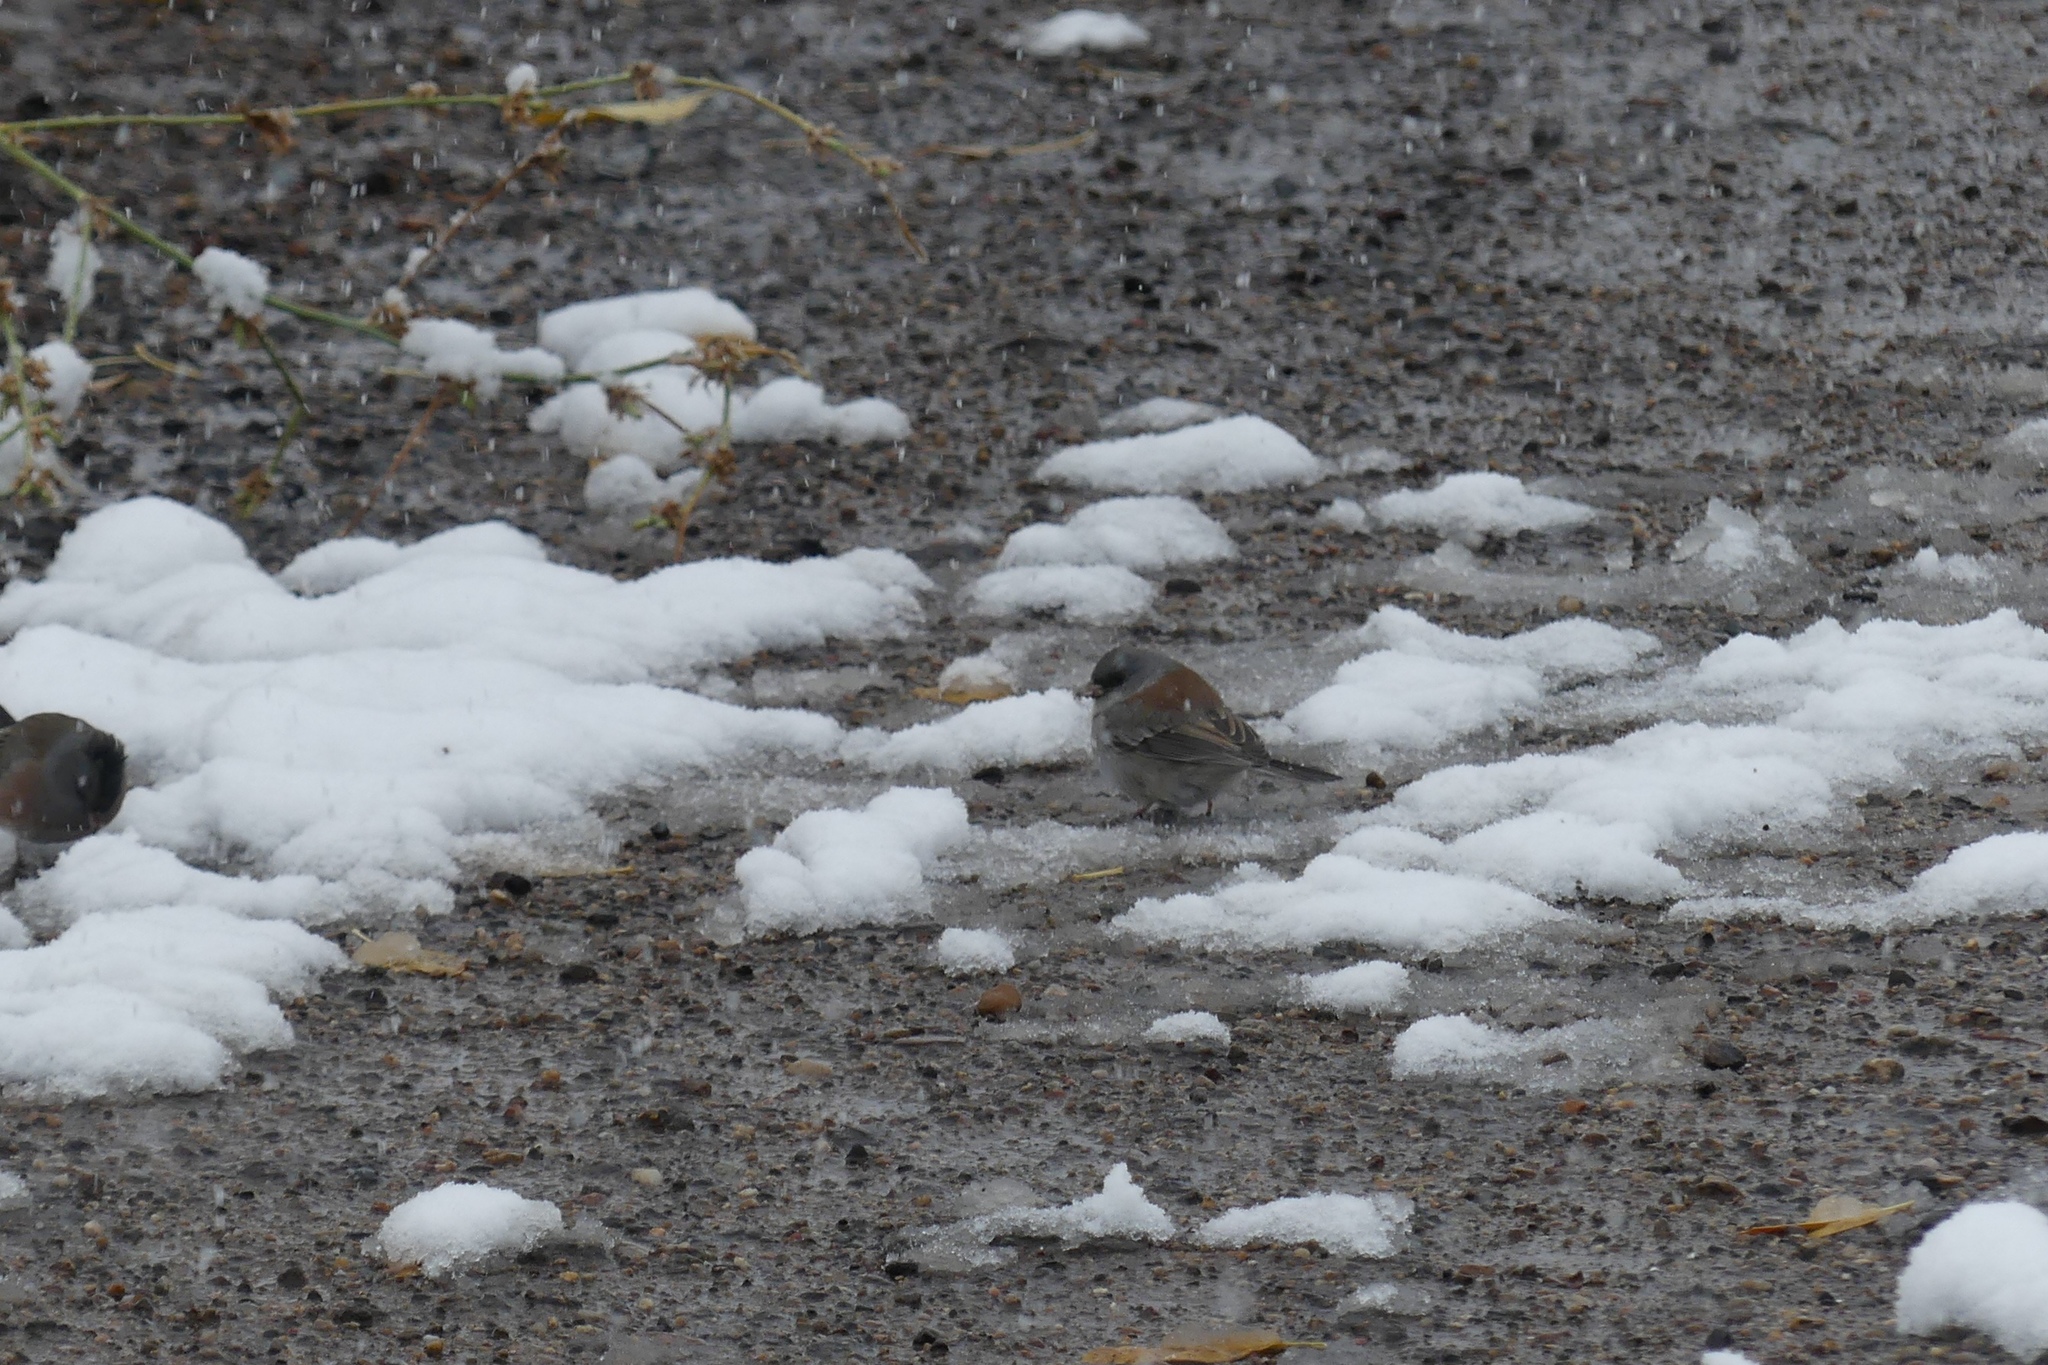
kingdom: Animalia
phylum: Chordata
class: Aves
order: Passeriformes
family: Passerellidae
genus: Junco
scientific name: Junco hyemalis
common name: Dark-eyed junco
